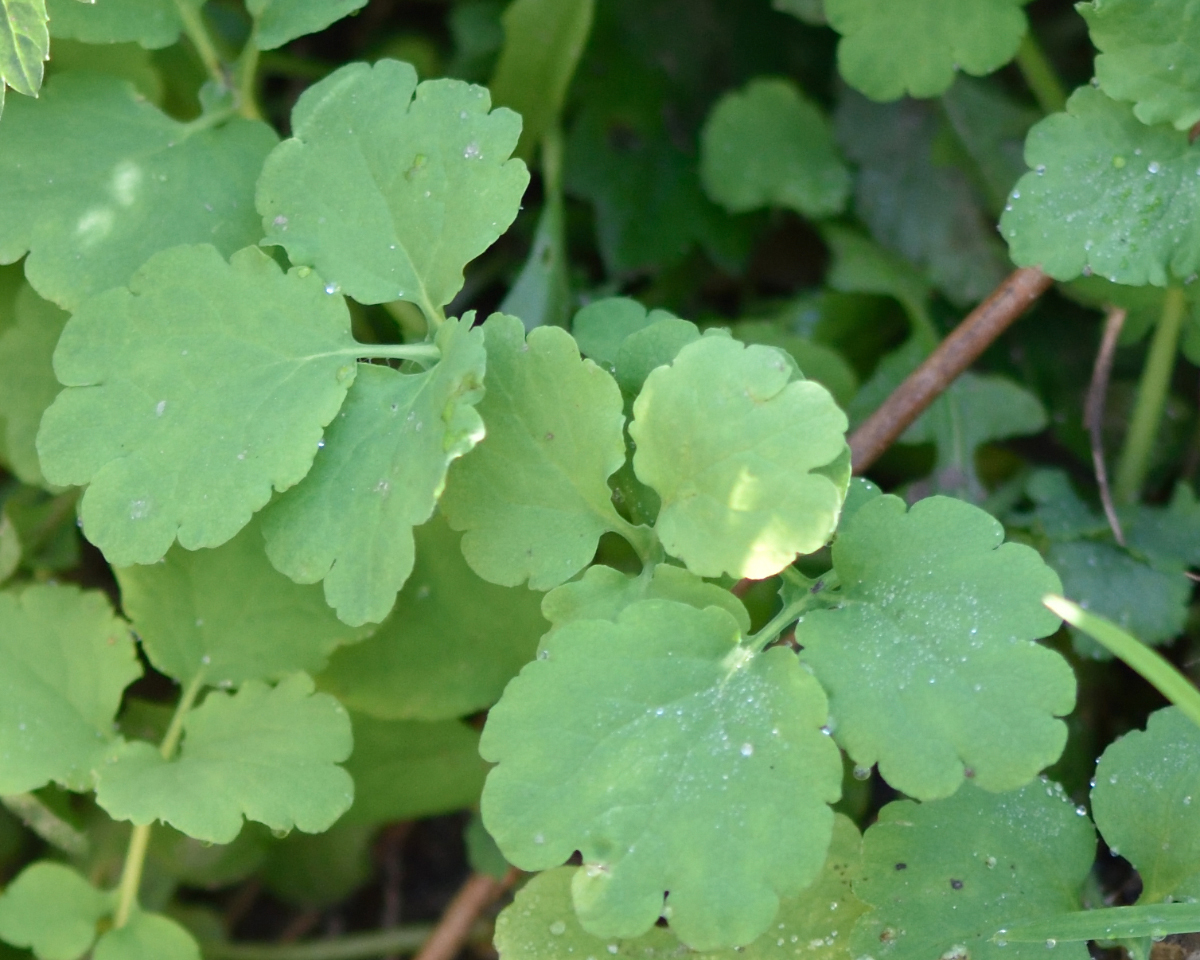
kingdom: Plantae
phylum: Tracheophyta
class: Magnoliopsida
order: Ranunculales
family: Papaveraceae
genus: Chelidonium
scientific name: Chelidonium majus
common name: Greater celandine
